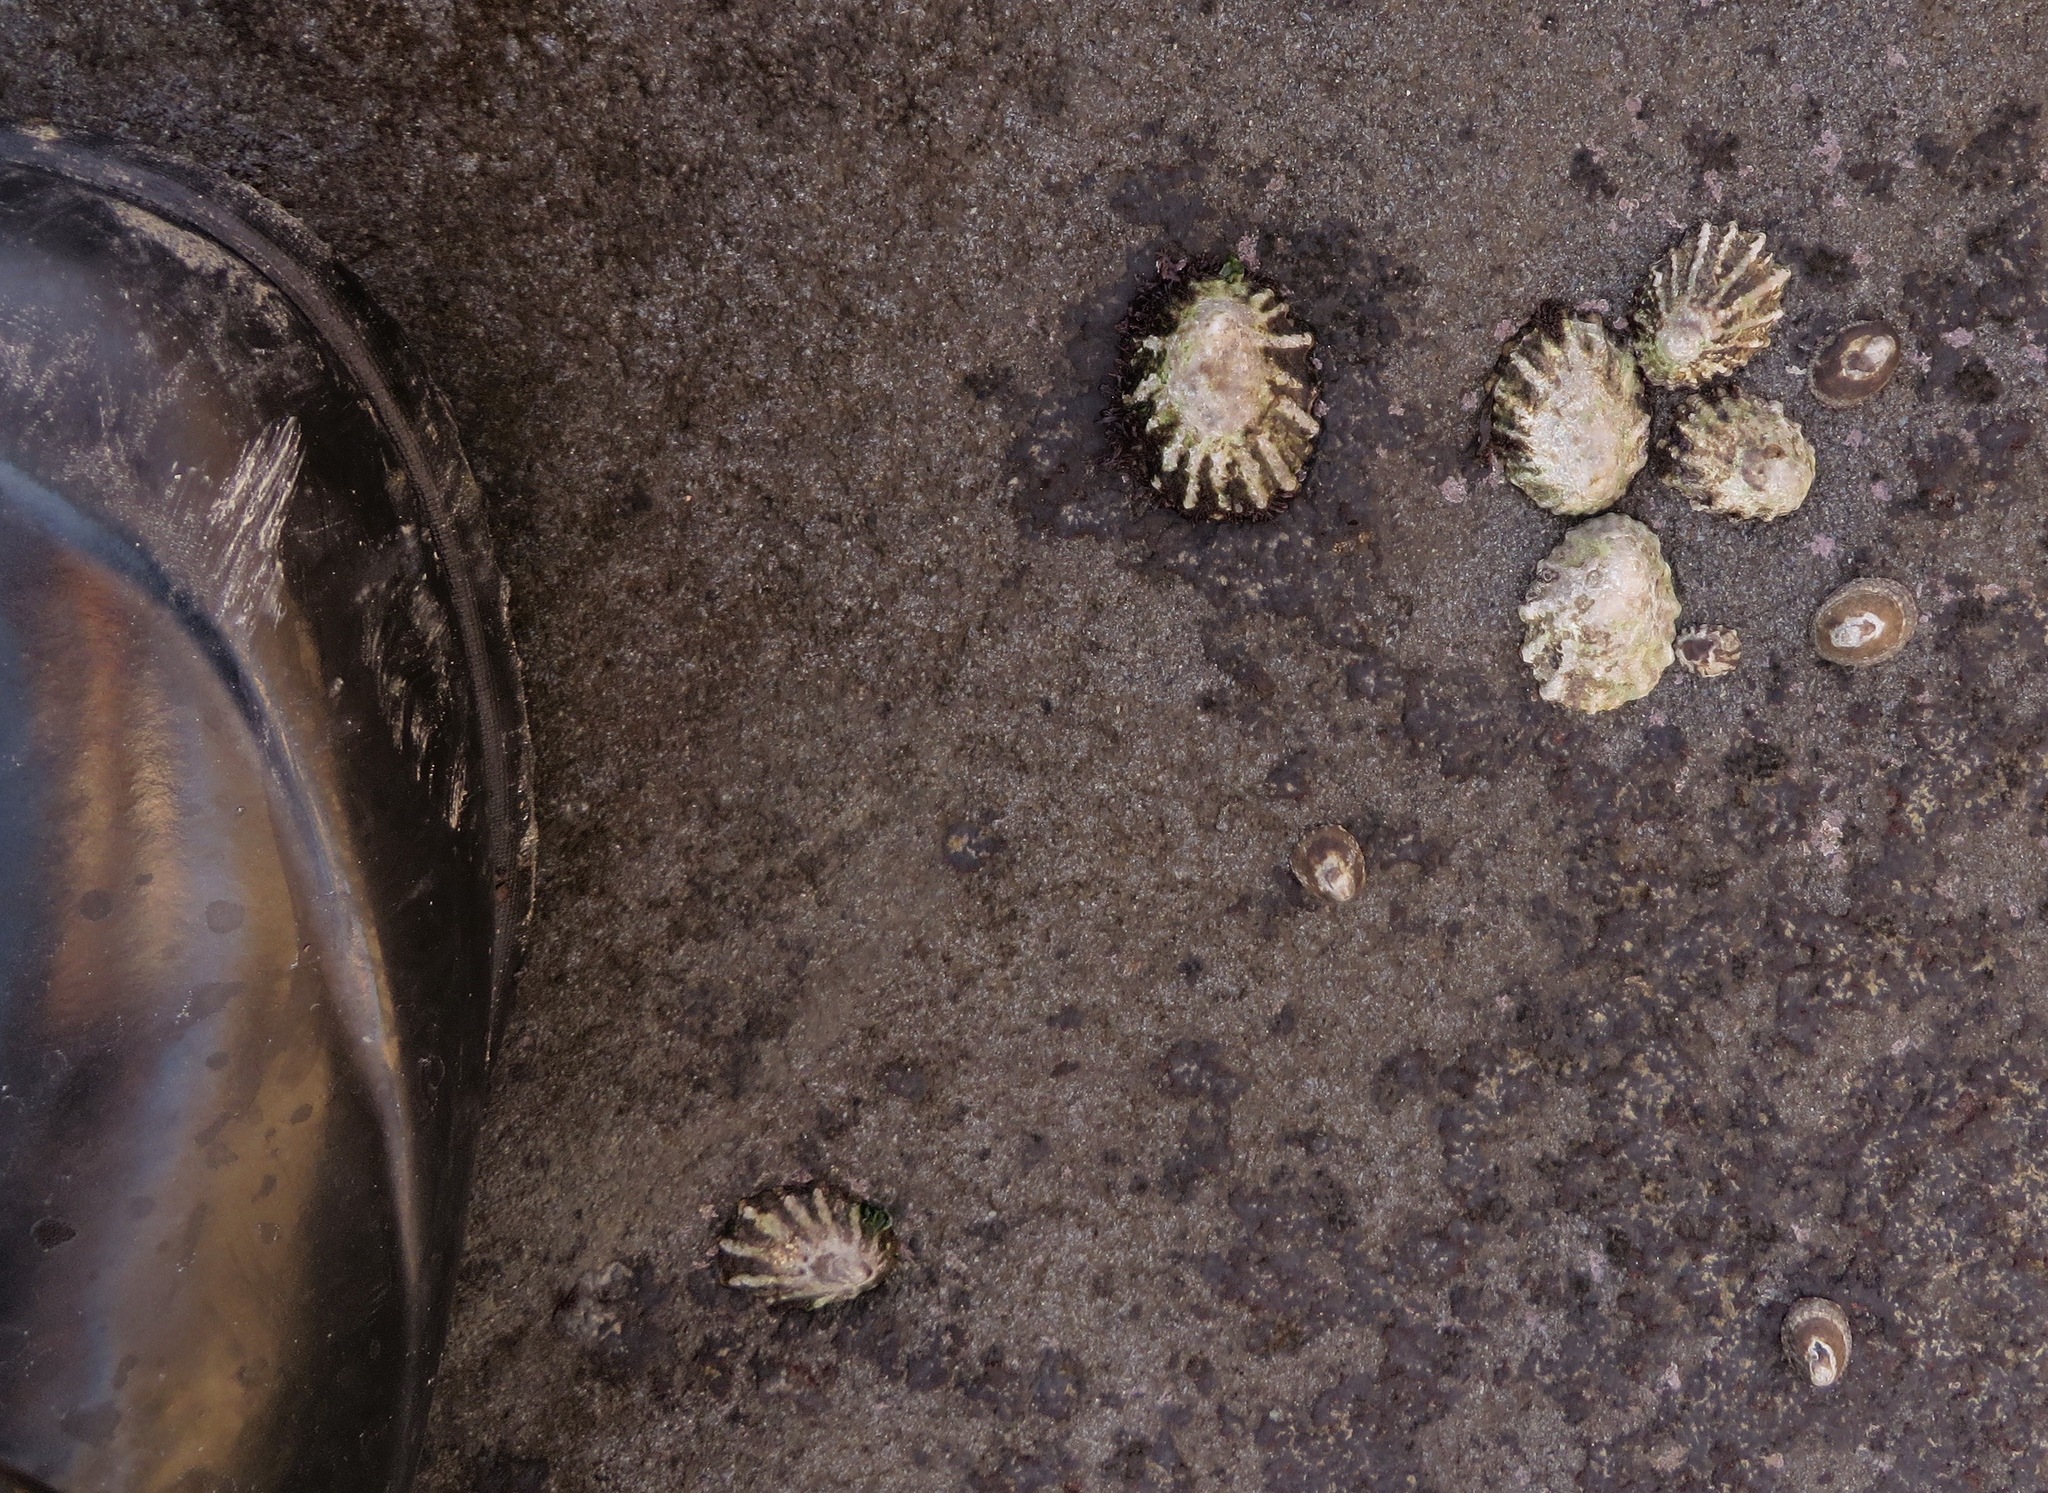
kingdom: Animalia
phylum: Mollusca
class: Gastropoda
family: Lottiidae
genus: Lottia
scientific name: Lottia scabra
